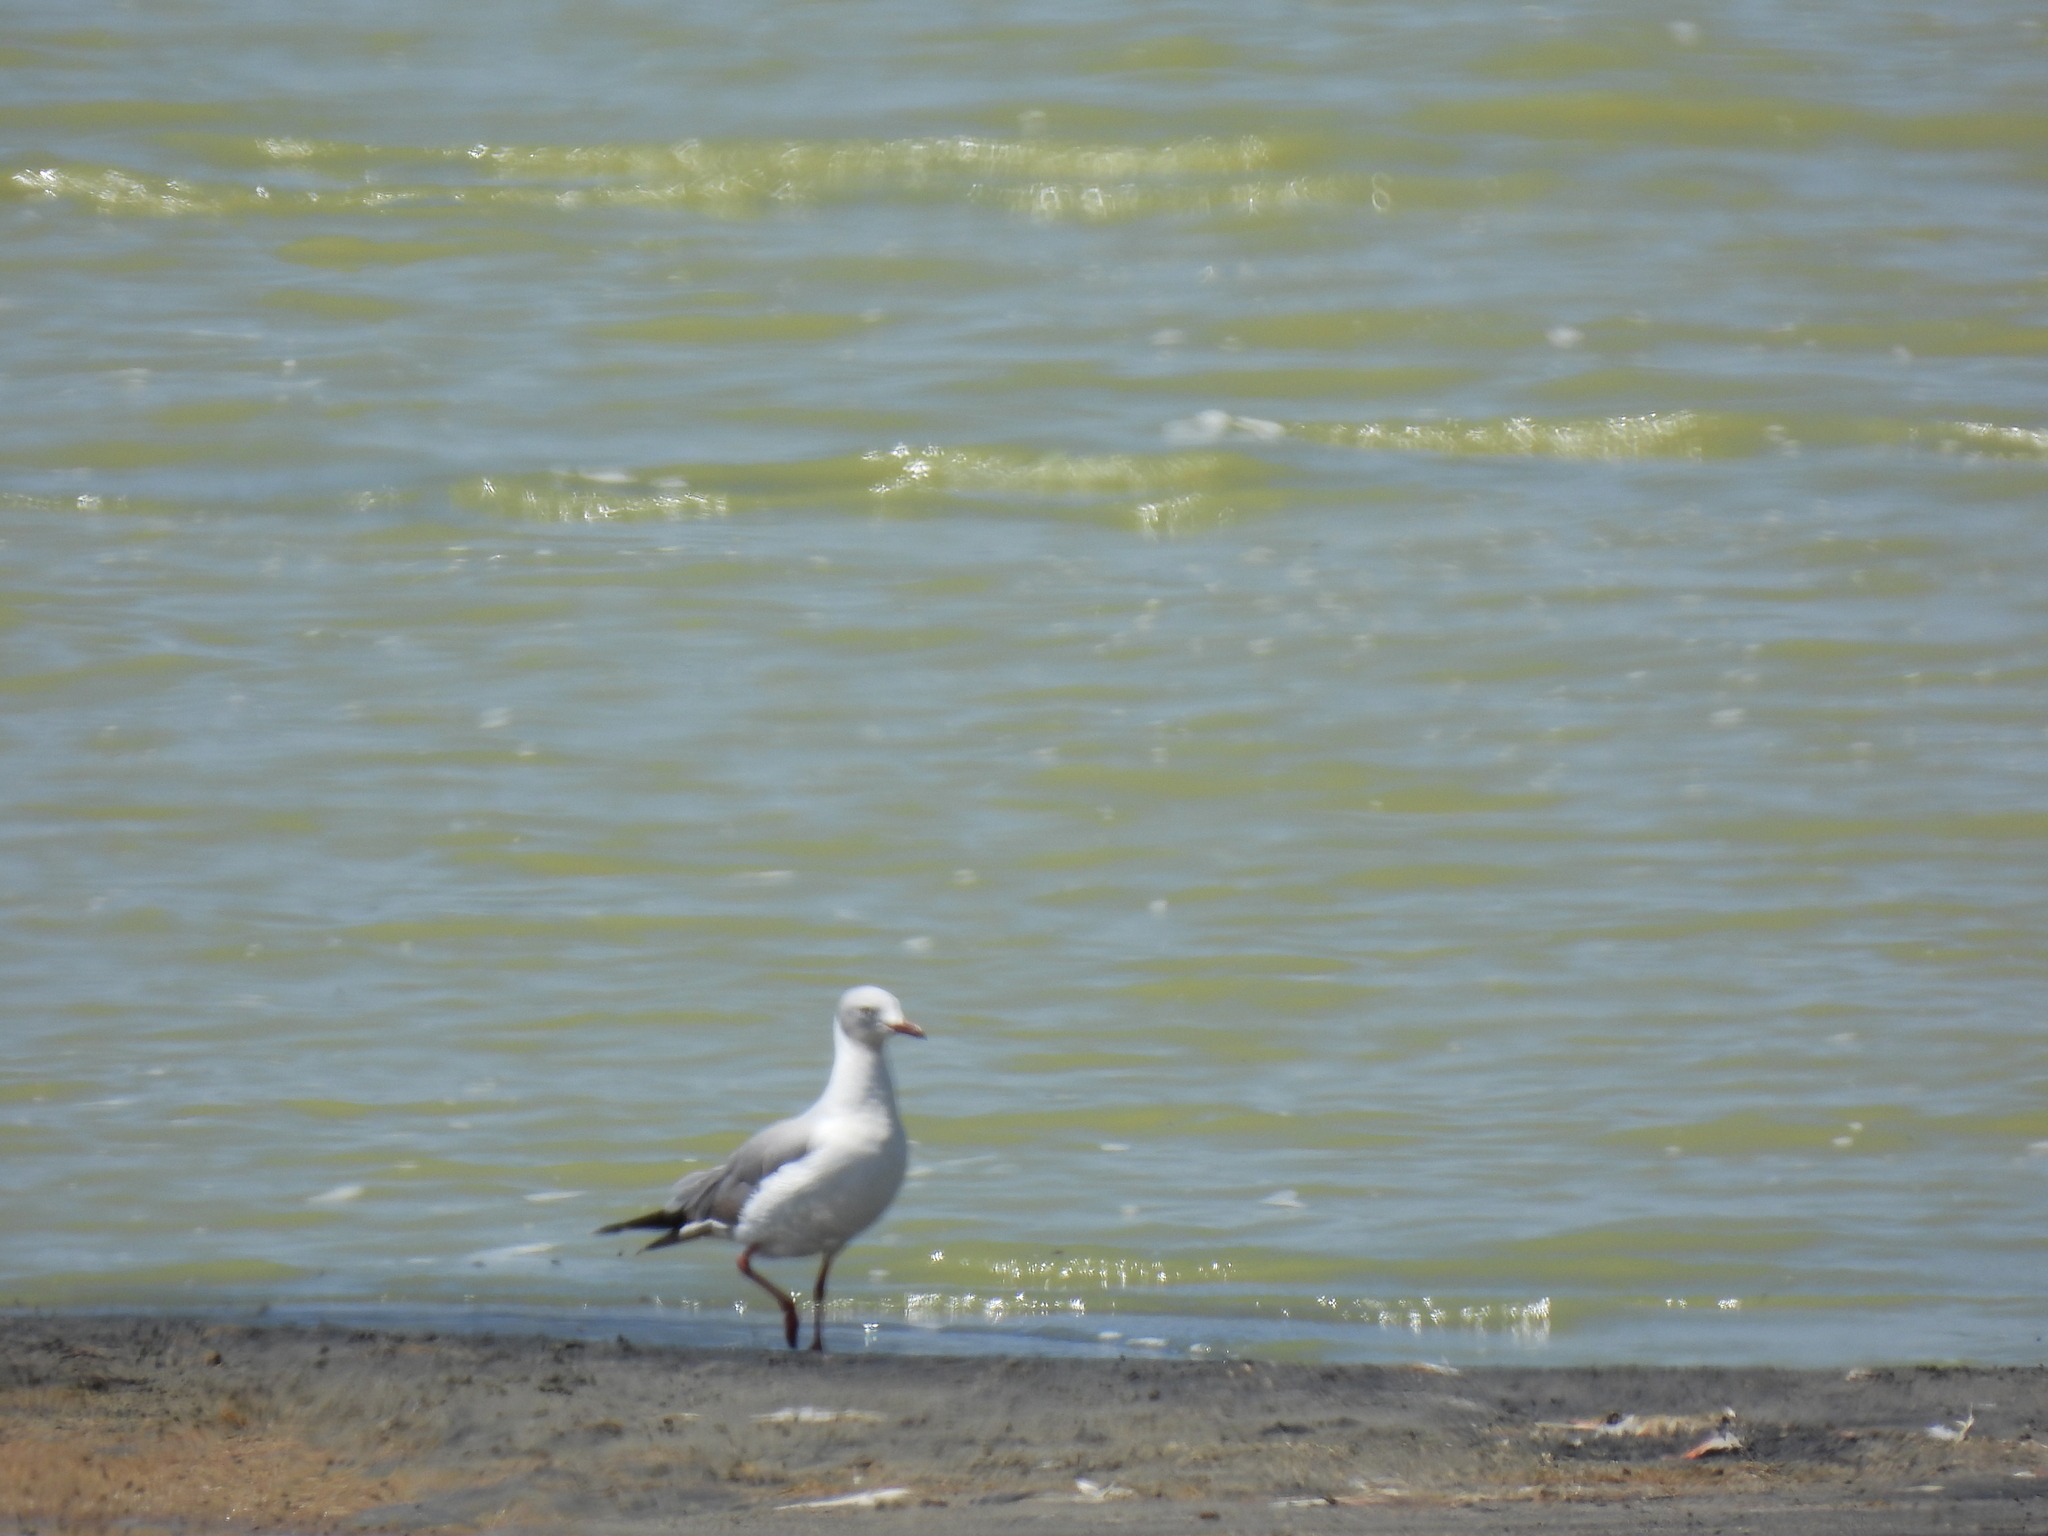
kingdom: Animalia
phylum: Chordata
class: Aves
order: Charadriiformes
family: Laridae
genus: Chroicocephalus
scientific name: Chroicocephalus cirrocephalus
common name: Grey-headed gull
